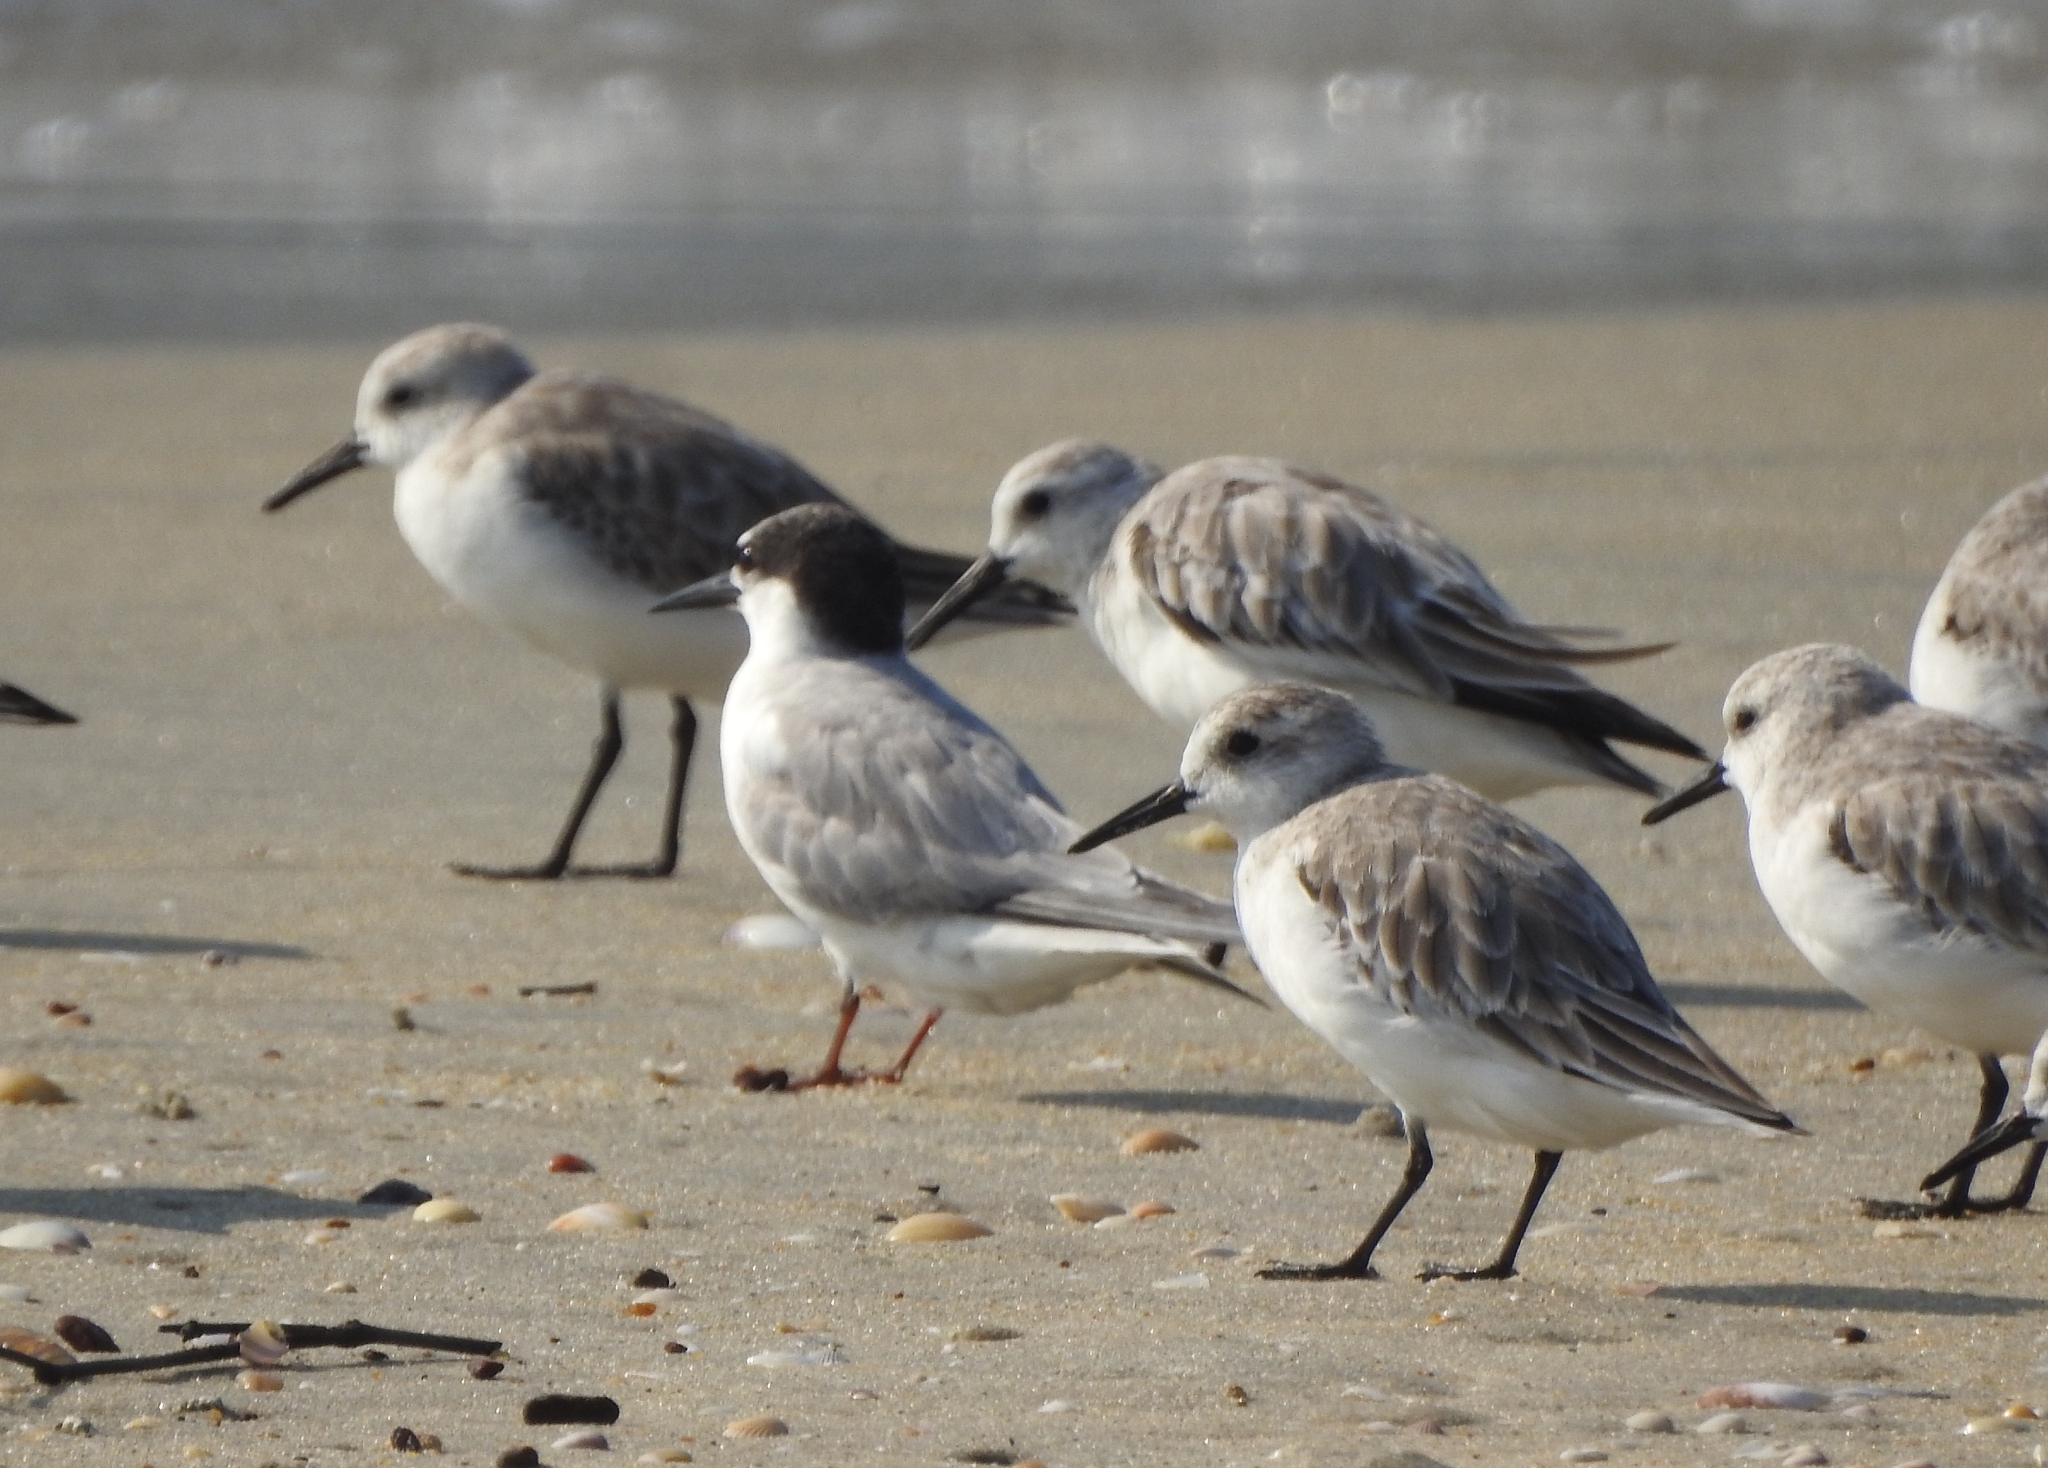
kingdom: Animalia
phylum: Chordata
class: Aves
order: Charadriiformes
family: Scolopacidae
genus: Calidris
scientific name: Calidris alba
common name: Sanderling
